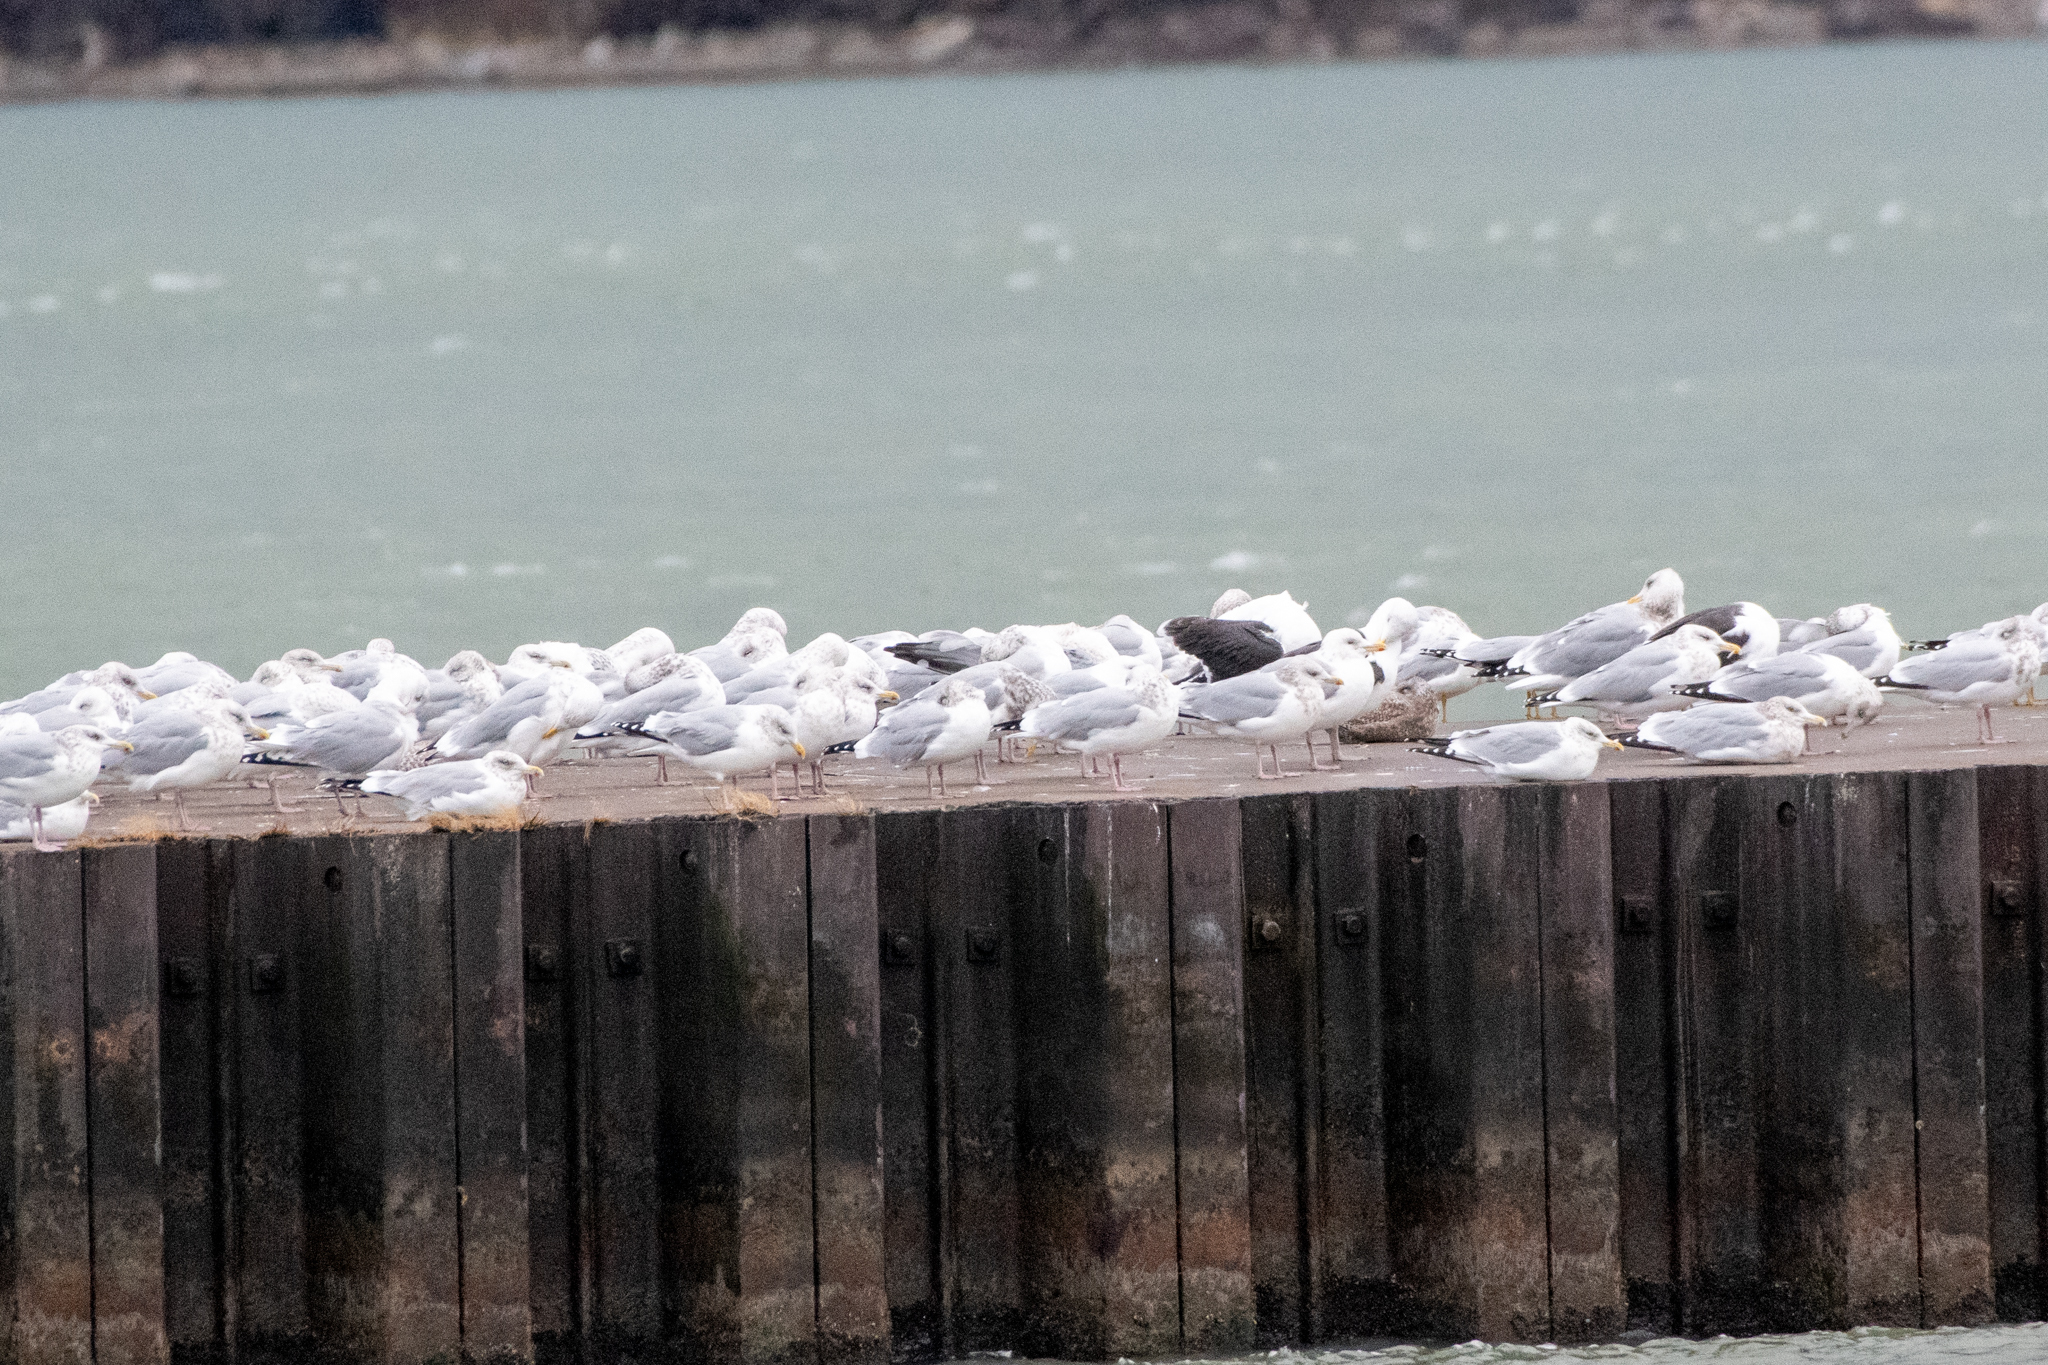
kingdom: Animalia
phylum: Chordata
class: Aves
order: Charadriiformes
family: Laridae
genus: Larus
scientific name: Larus argentatus
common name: Herring gull
